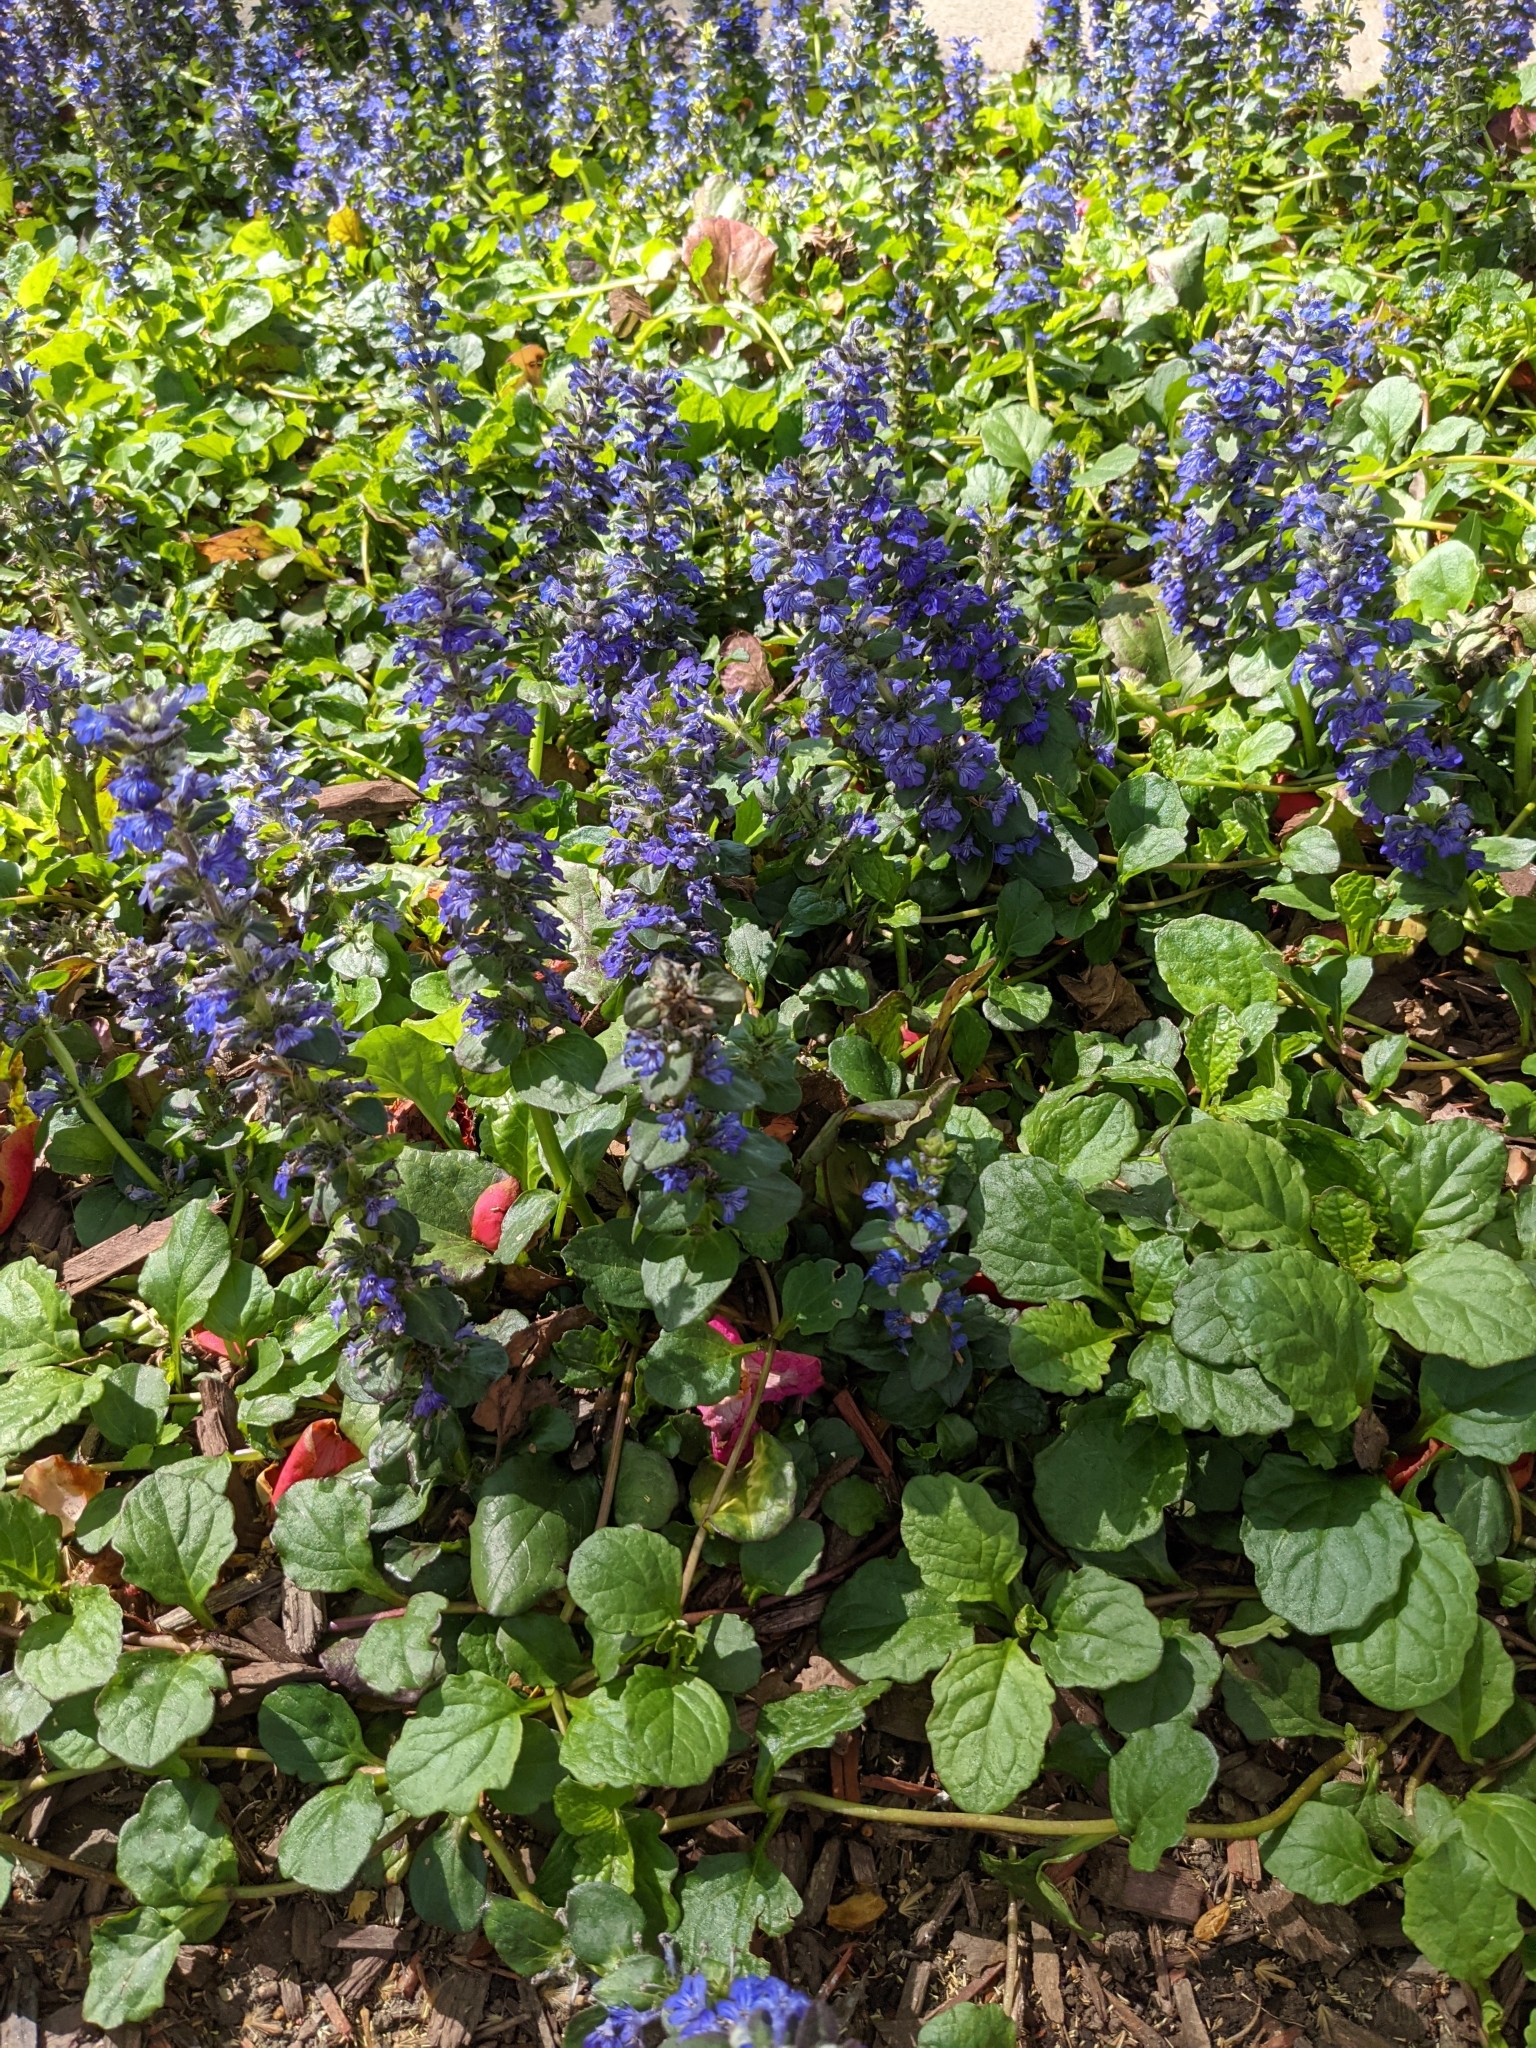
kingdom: Plantae
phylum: Tracheophyta
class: Magnoliopsida
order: Lamiales
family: Lamiaceae
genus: Ajuga
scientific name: Ajuga reptans
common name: Bugle
